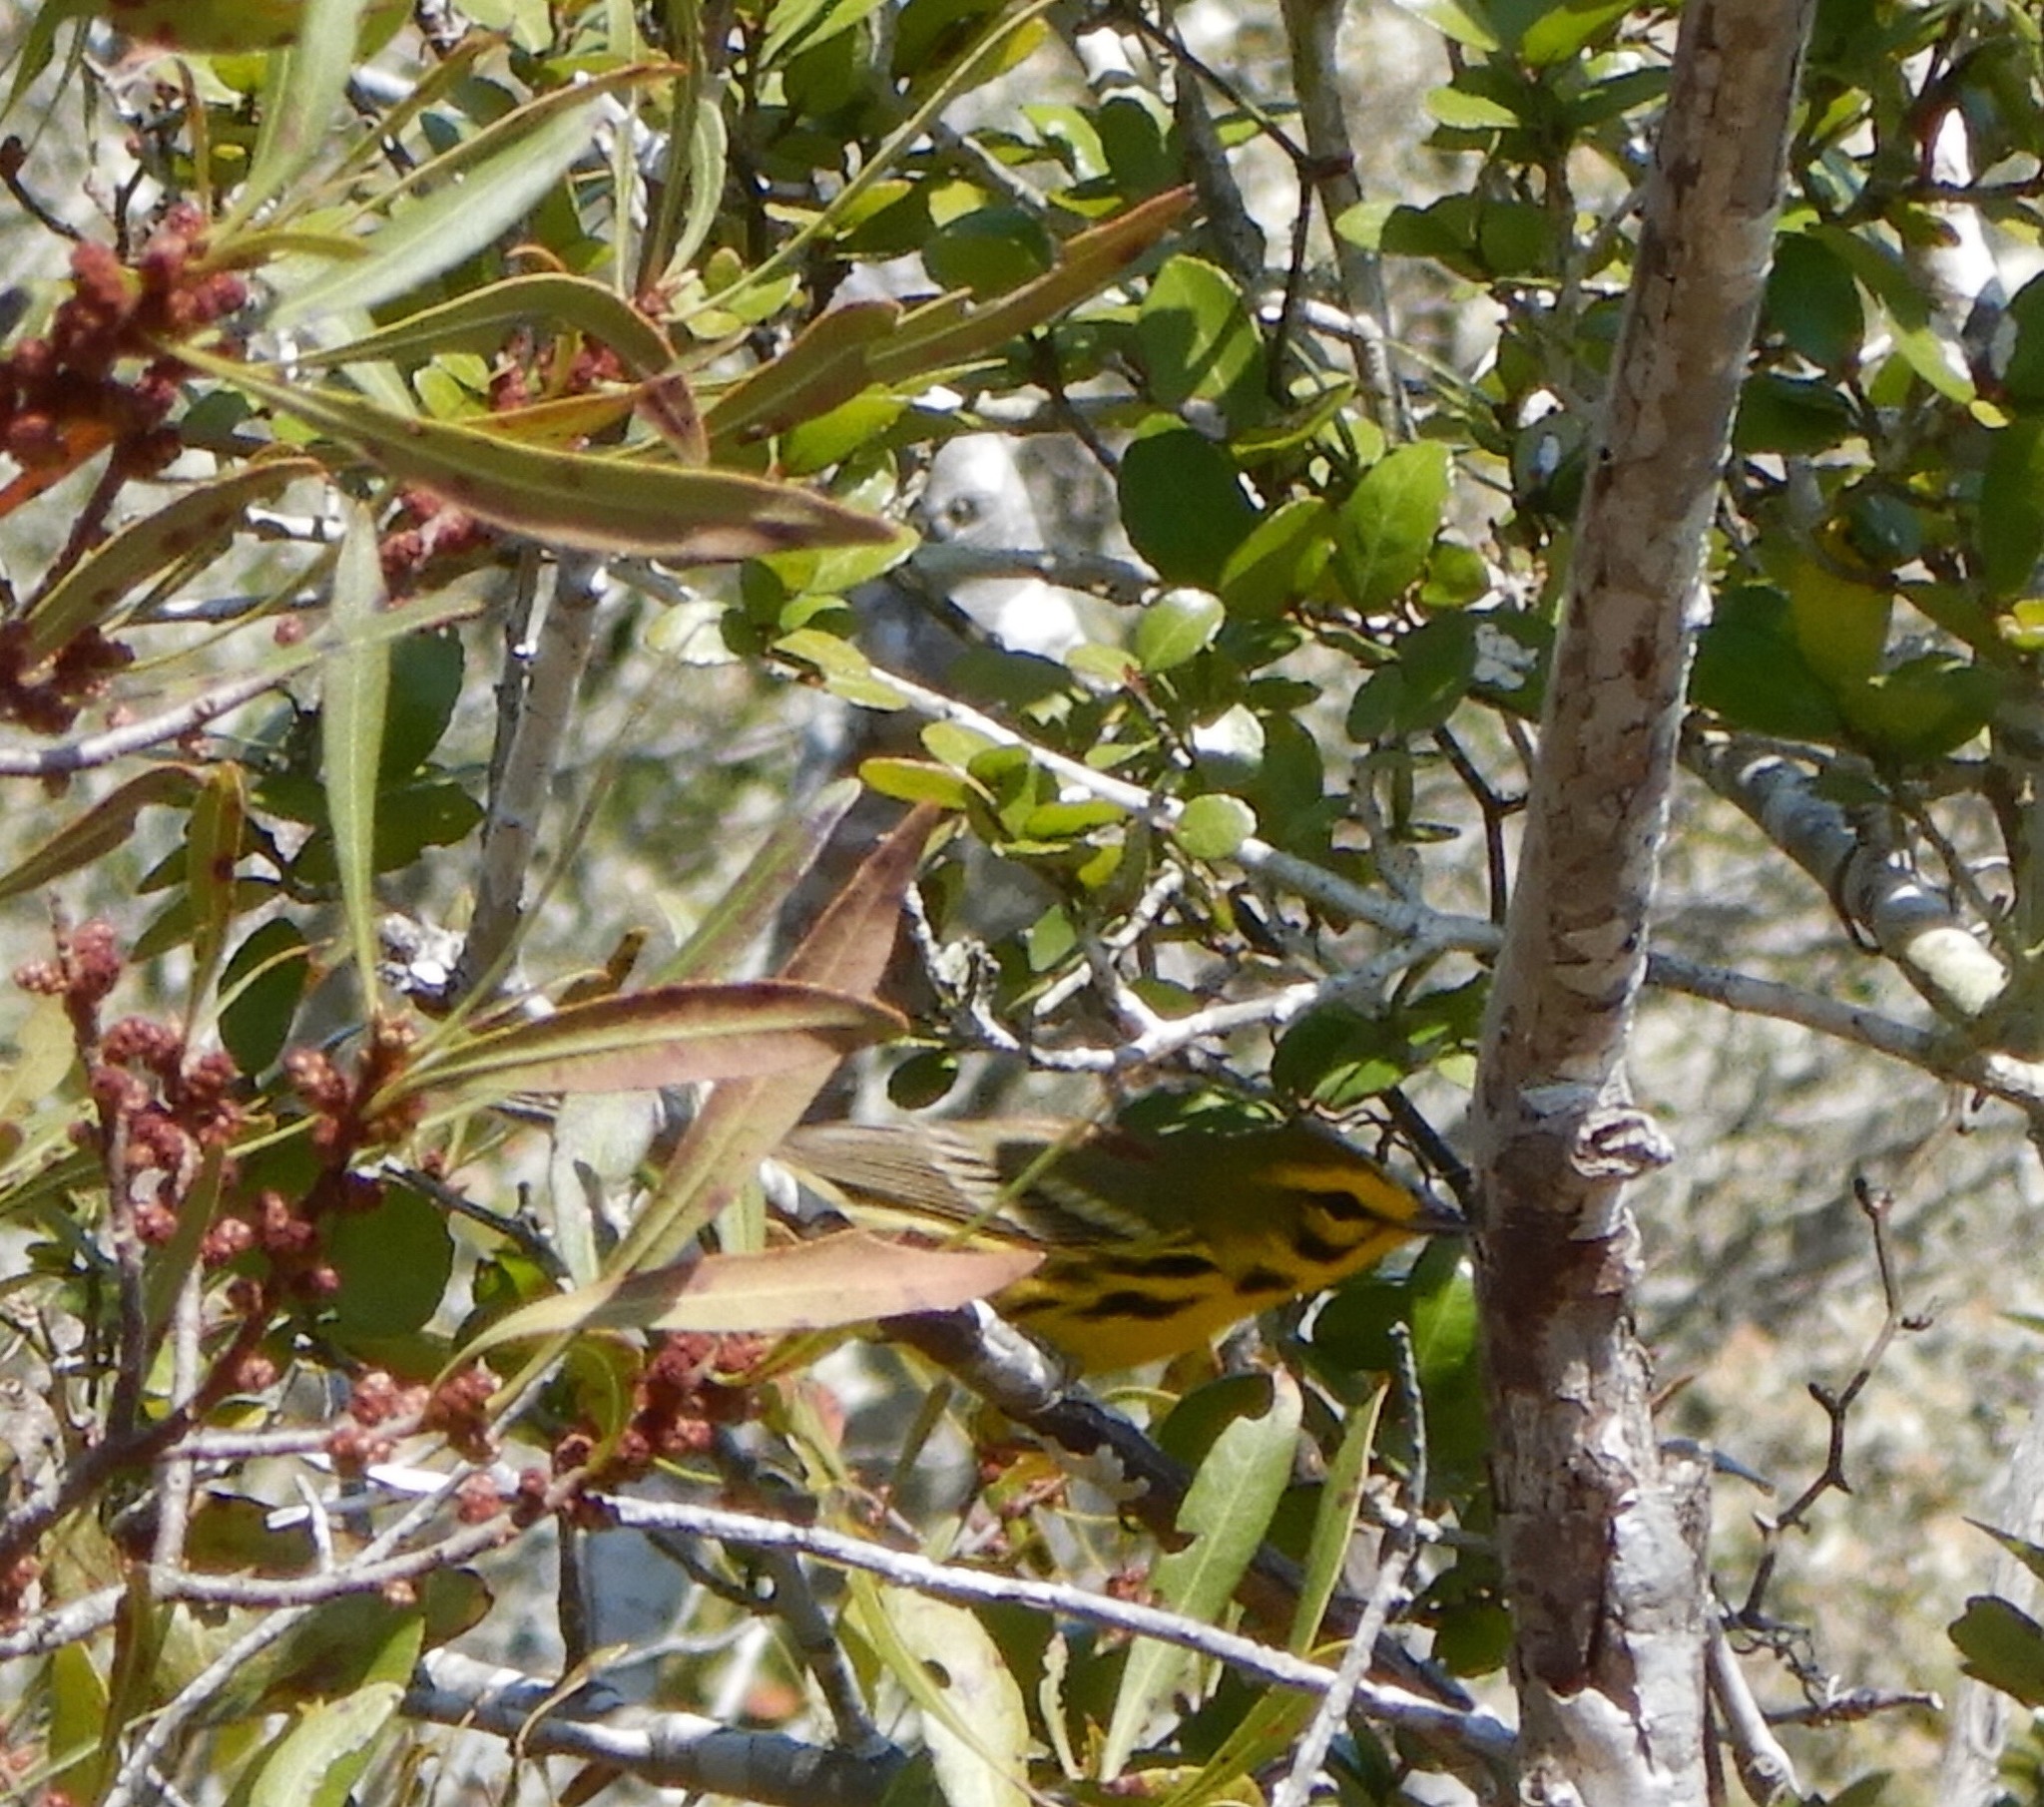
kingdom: Animalia
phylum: Chordata
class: Aves
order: Passeriformes
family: Parulidae
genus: Setophaga
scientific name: Setophaga discolor
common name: Prairie warbler
